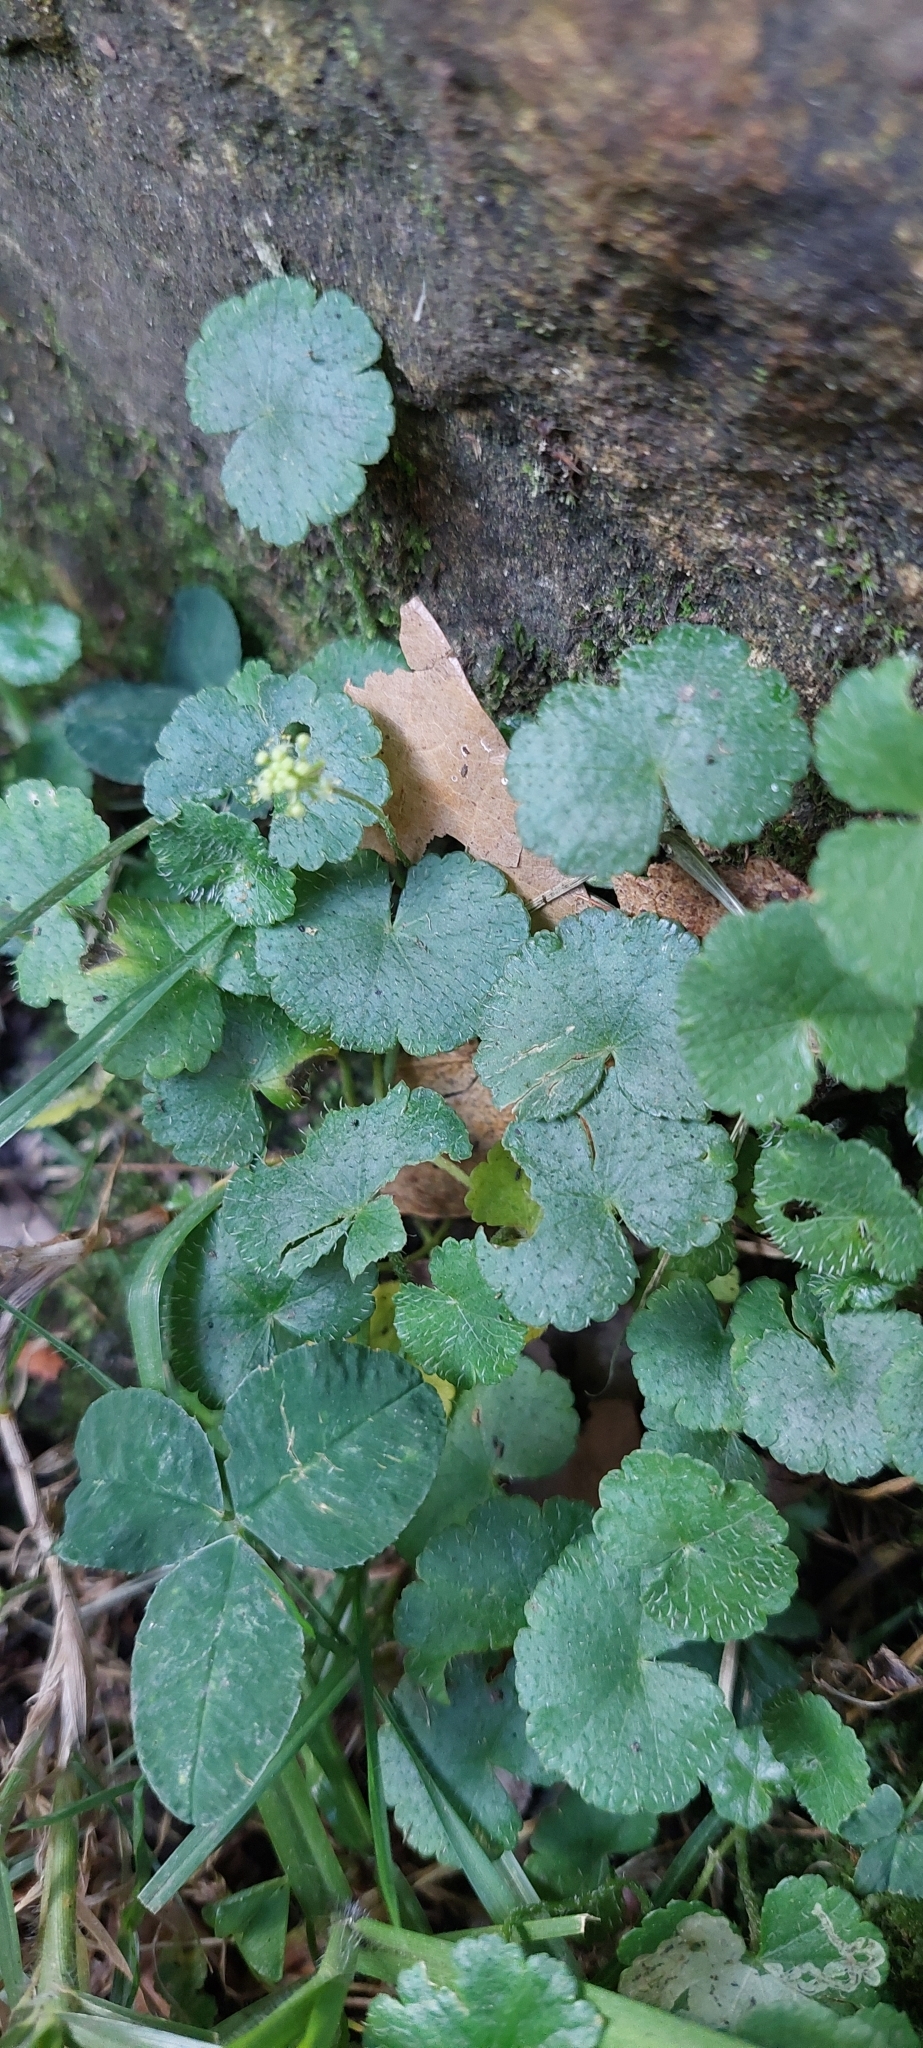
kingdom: Plantae
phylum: Tracheophyta
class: Magnoliopsida
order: Apiales
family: Araliaceae
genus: Hydrocotyle
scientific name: Hydrocotyle bonplandii
